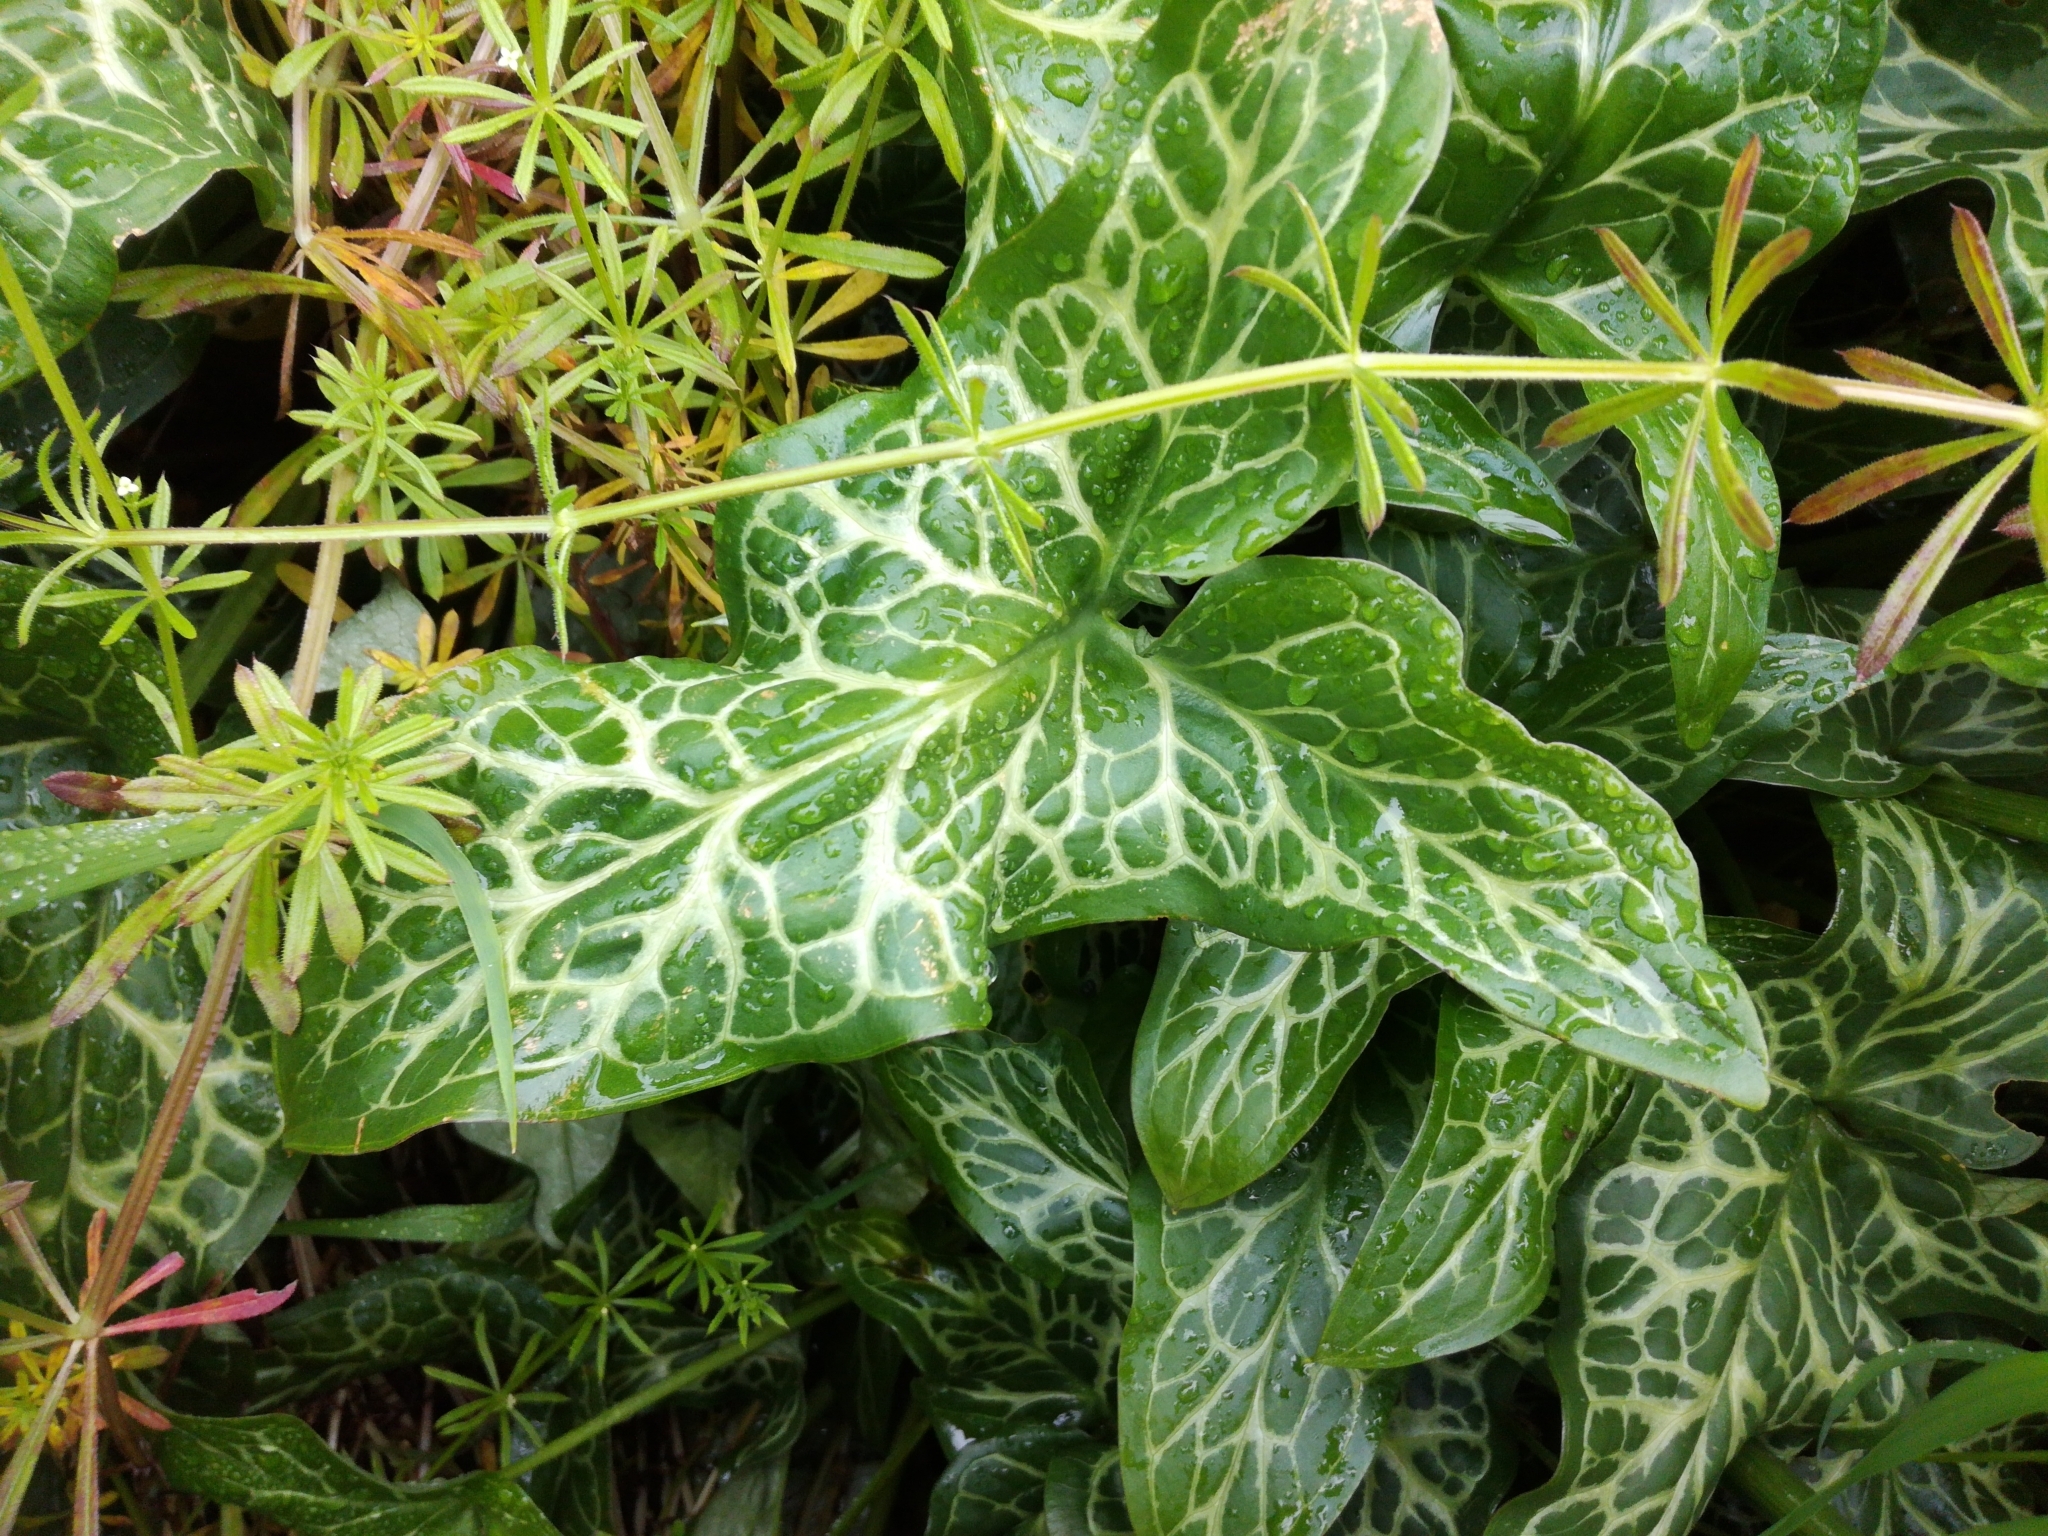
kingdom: Plantae
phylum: Tracheophyta
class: Liliopsida
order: Alismatales
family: Araceae
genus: Arum
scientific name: Arum italicum
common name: Italian lords-and-ladies
